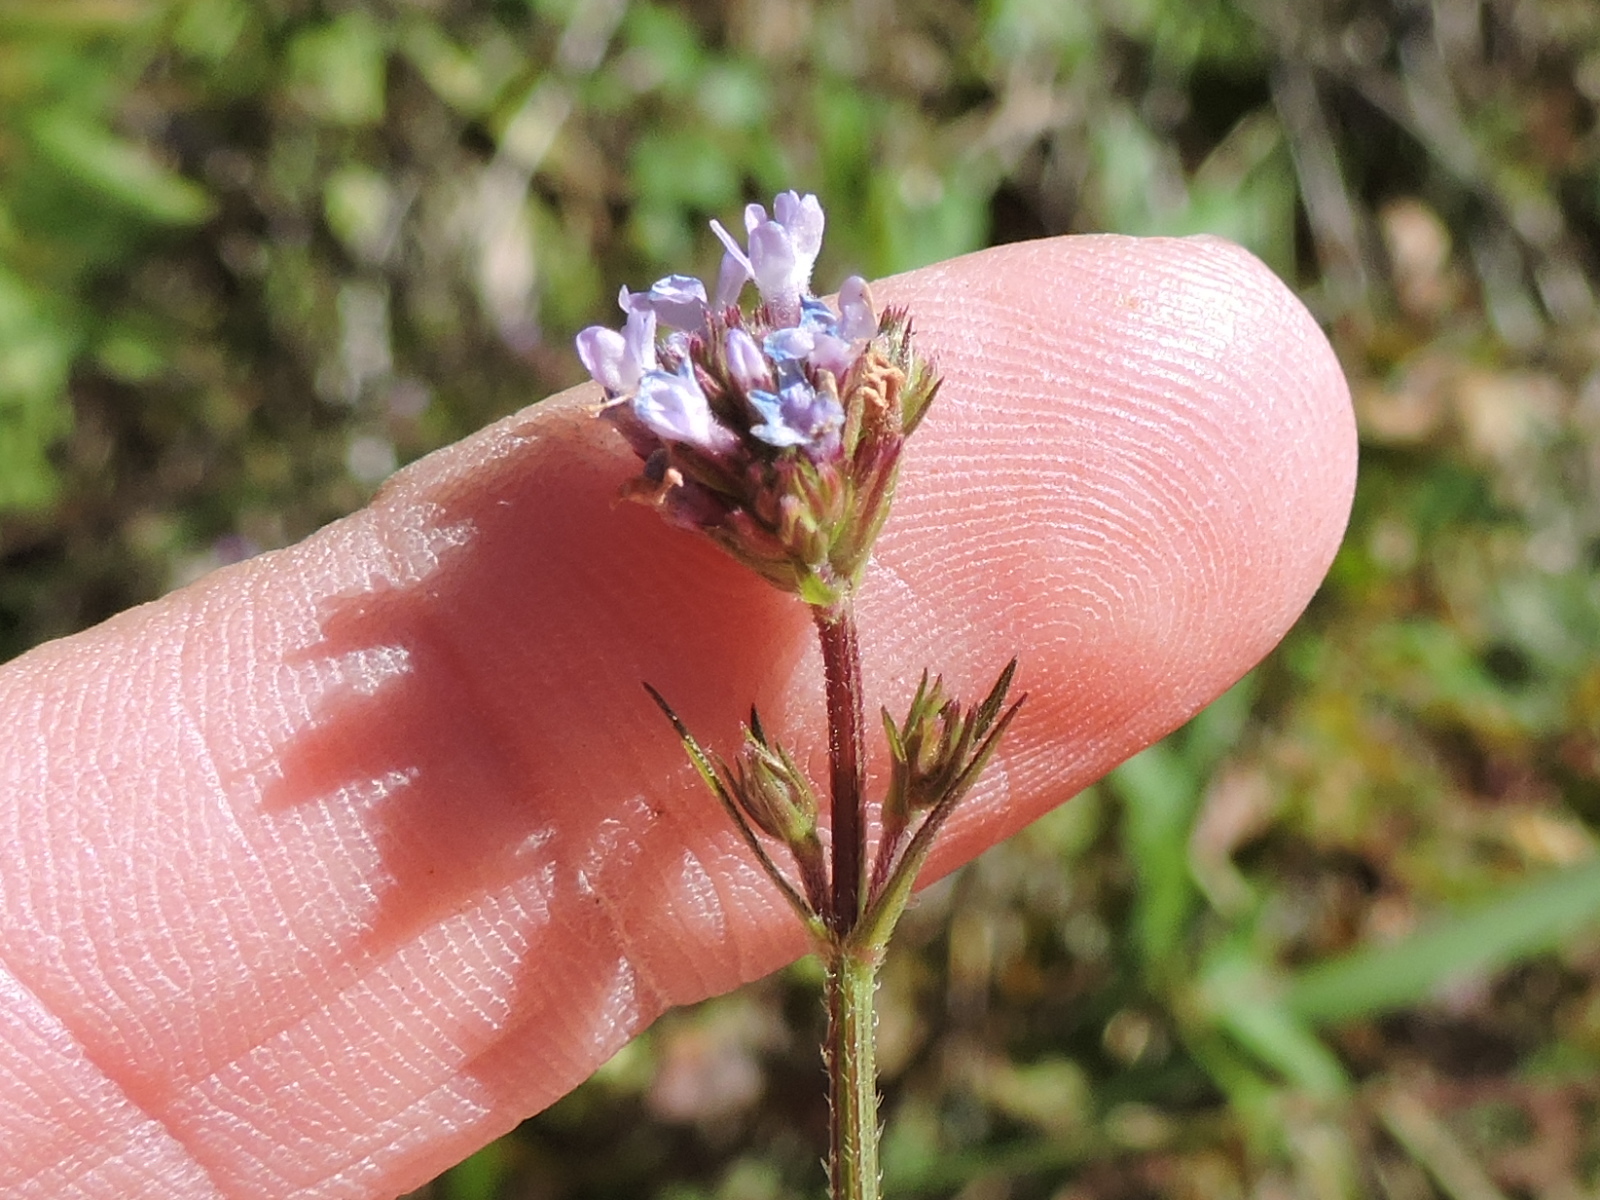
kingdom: Plantae
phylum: Tracheophyta
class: Magnoliopsida
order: Lamiales
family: Verbenaceae
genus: Verbena
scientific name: Verbena brasiliensis
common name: Brazilian vervain
